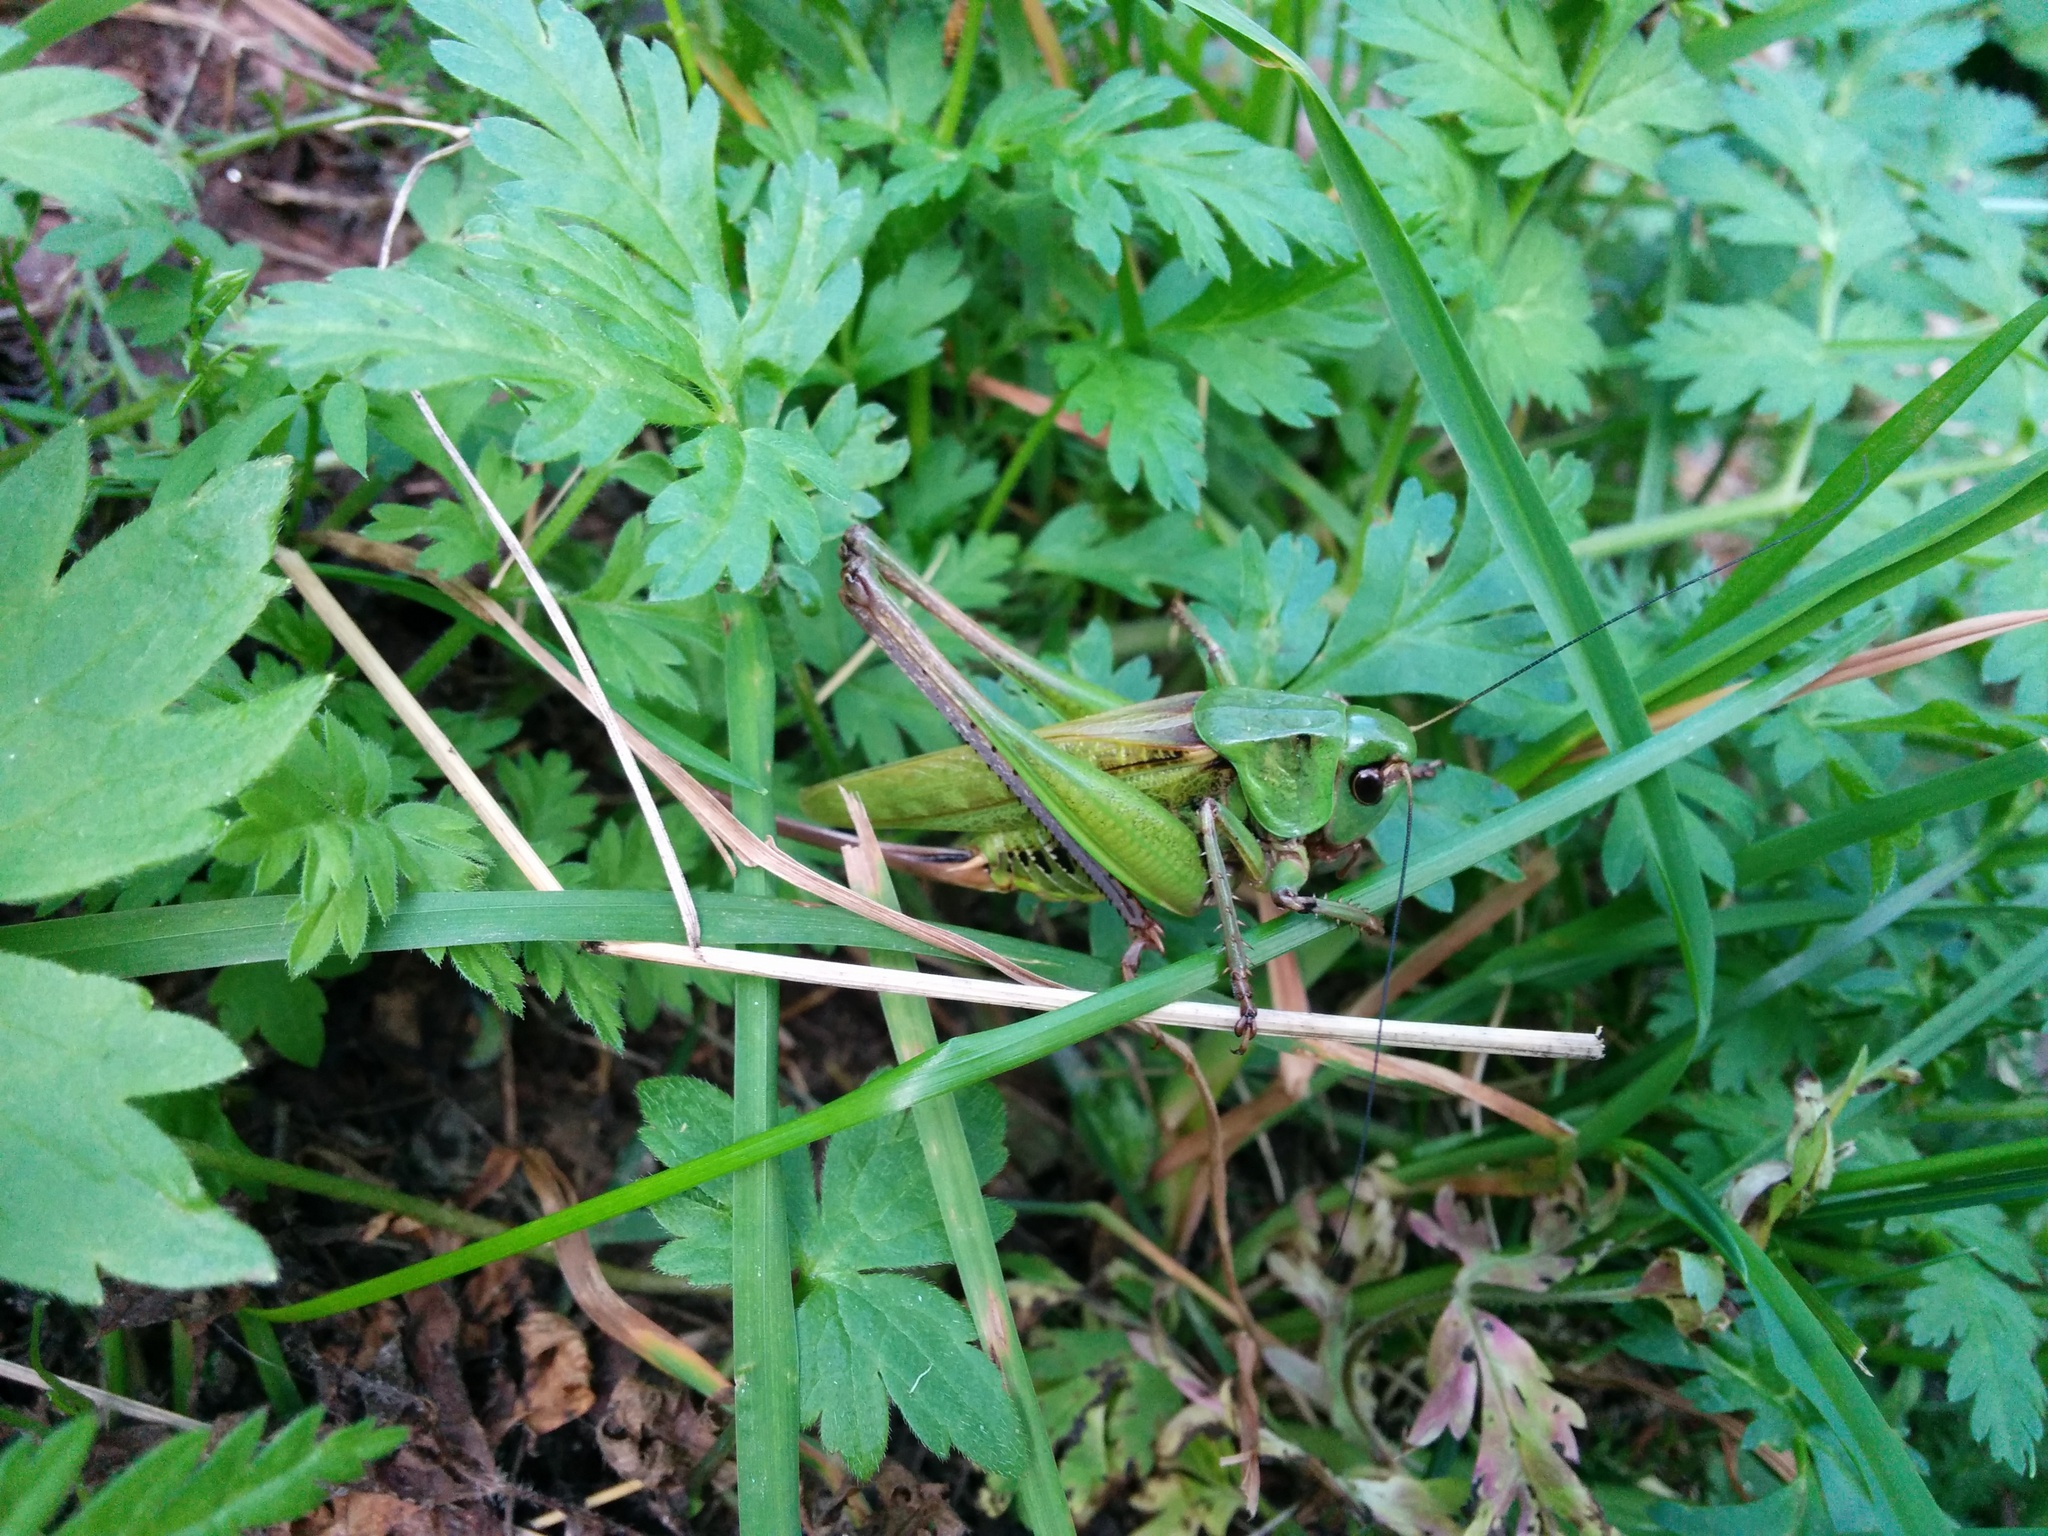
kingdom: Animalia
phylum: Arthropoda
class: Insecta
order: Orthoptera
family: Tettigoniidae
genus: Decticus
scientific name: Decticus verrucivorus
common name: Wart-biter
